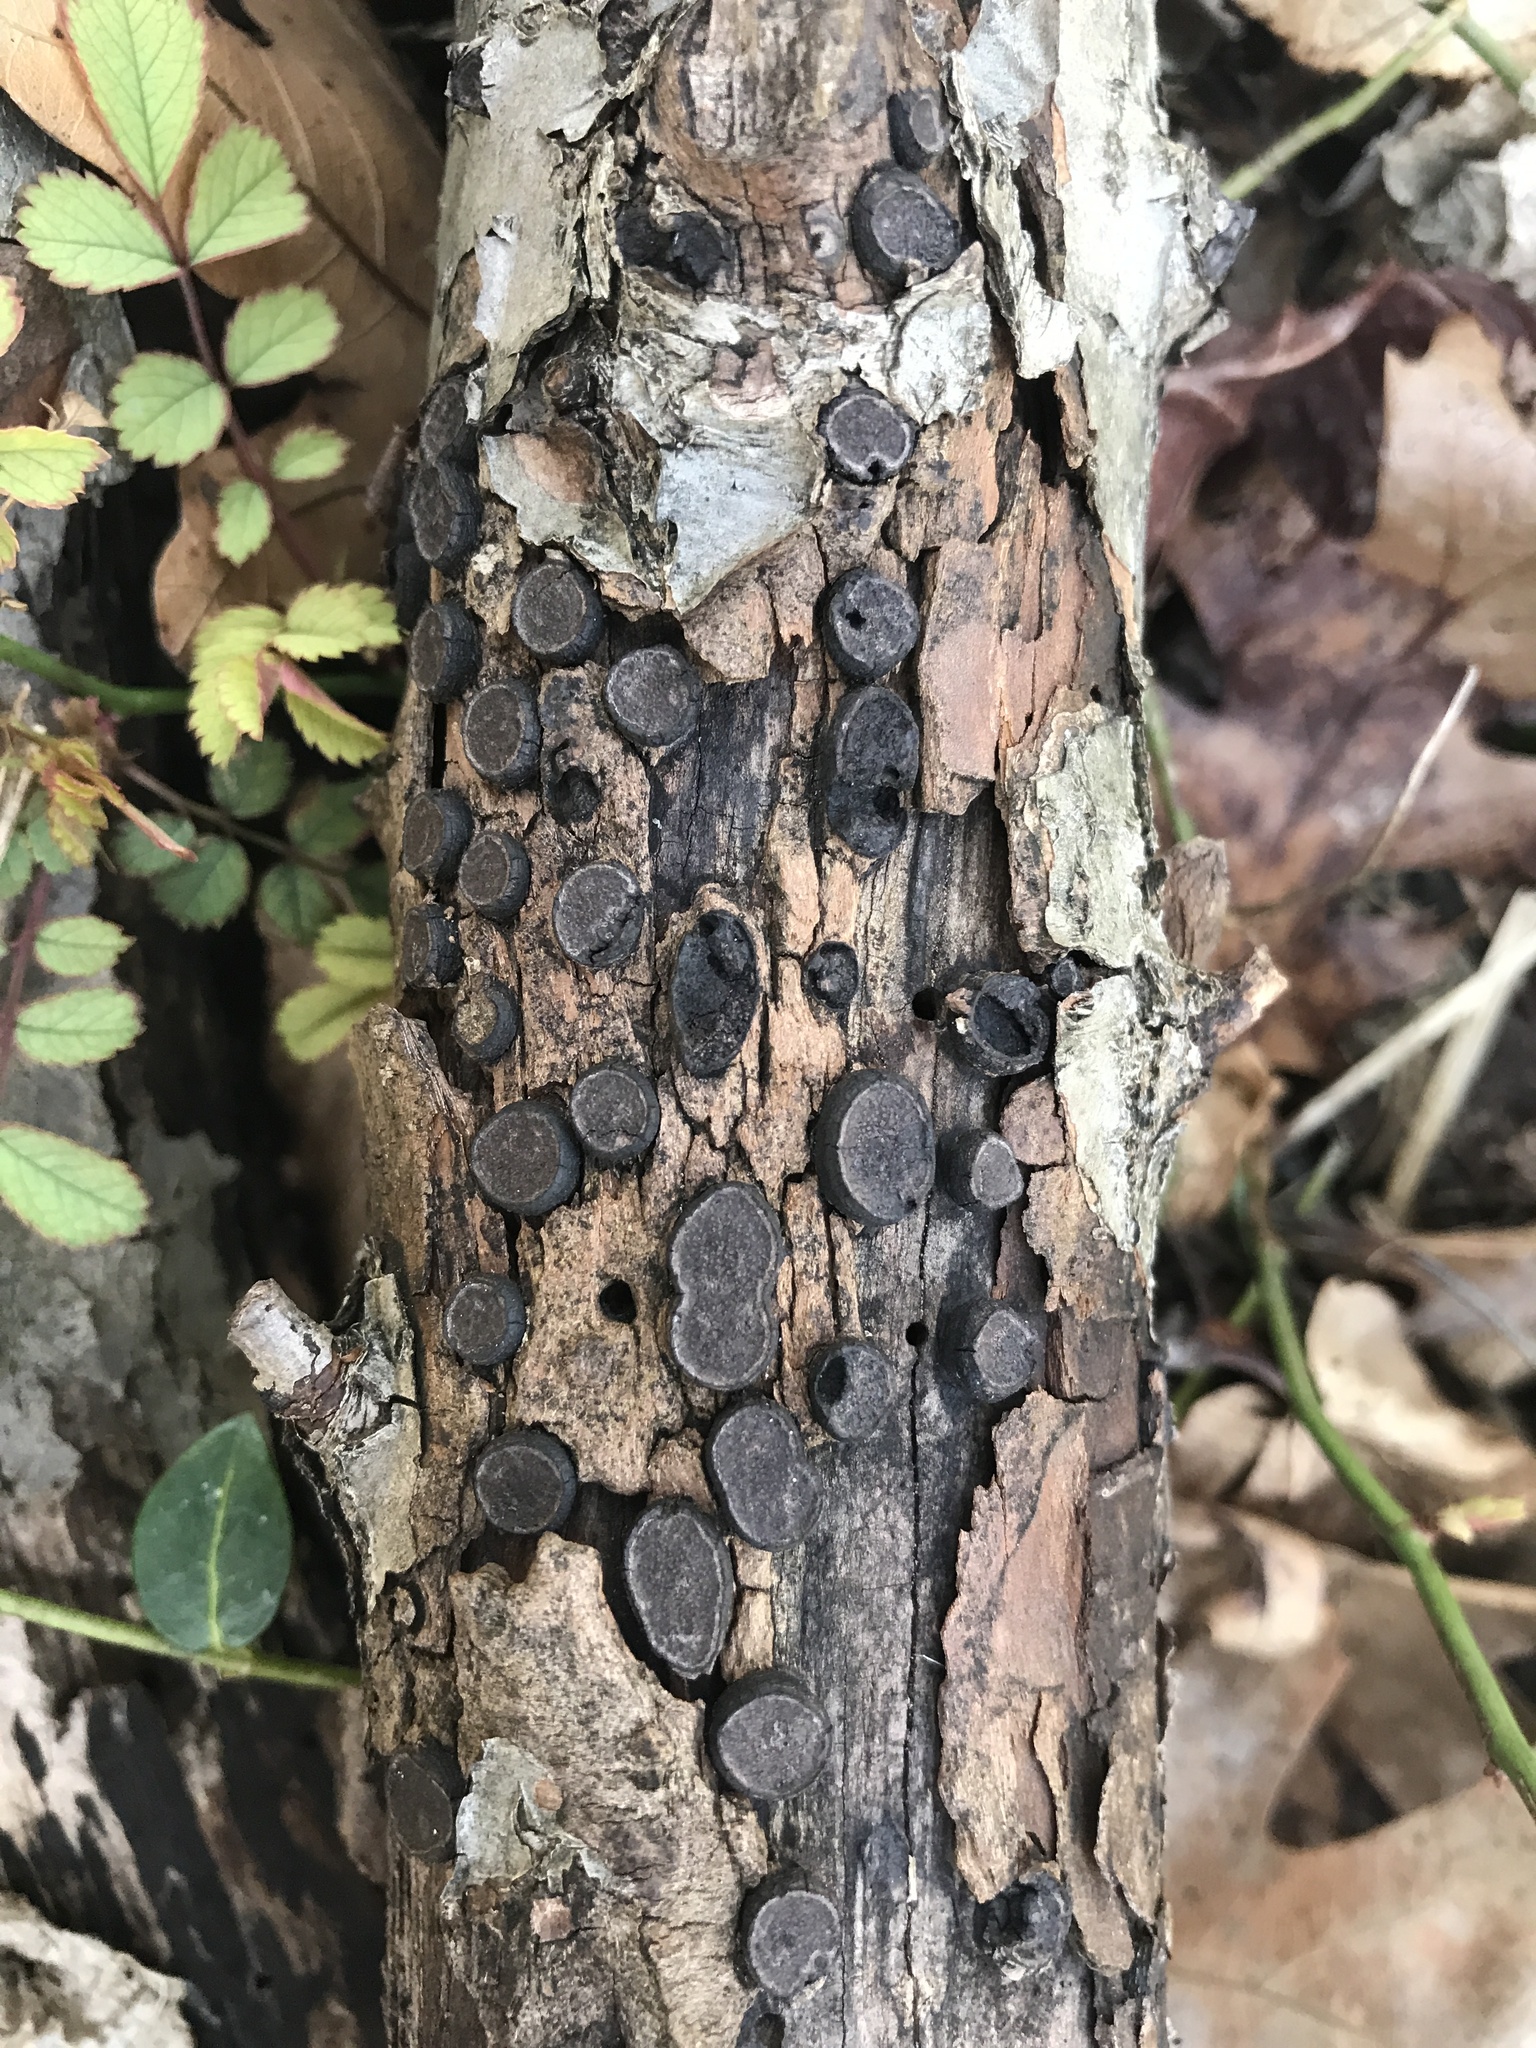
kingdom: Fungi
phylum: Ascomycota
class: Sordariomycetes
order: Xylariales
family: Graphostromataceae
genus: Biscogniauxia
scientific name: Biscogniauxia marginata
